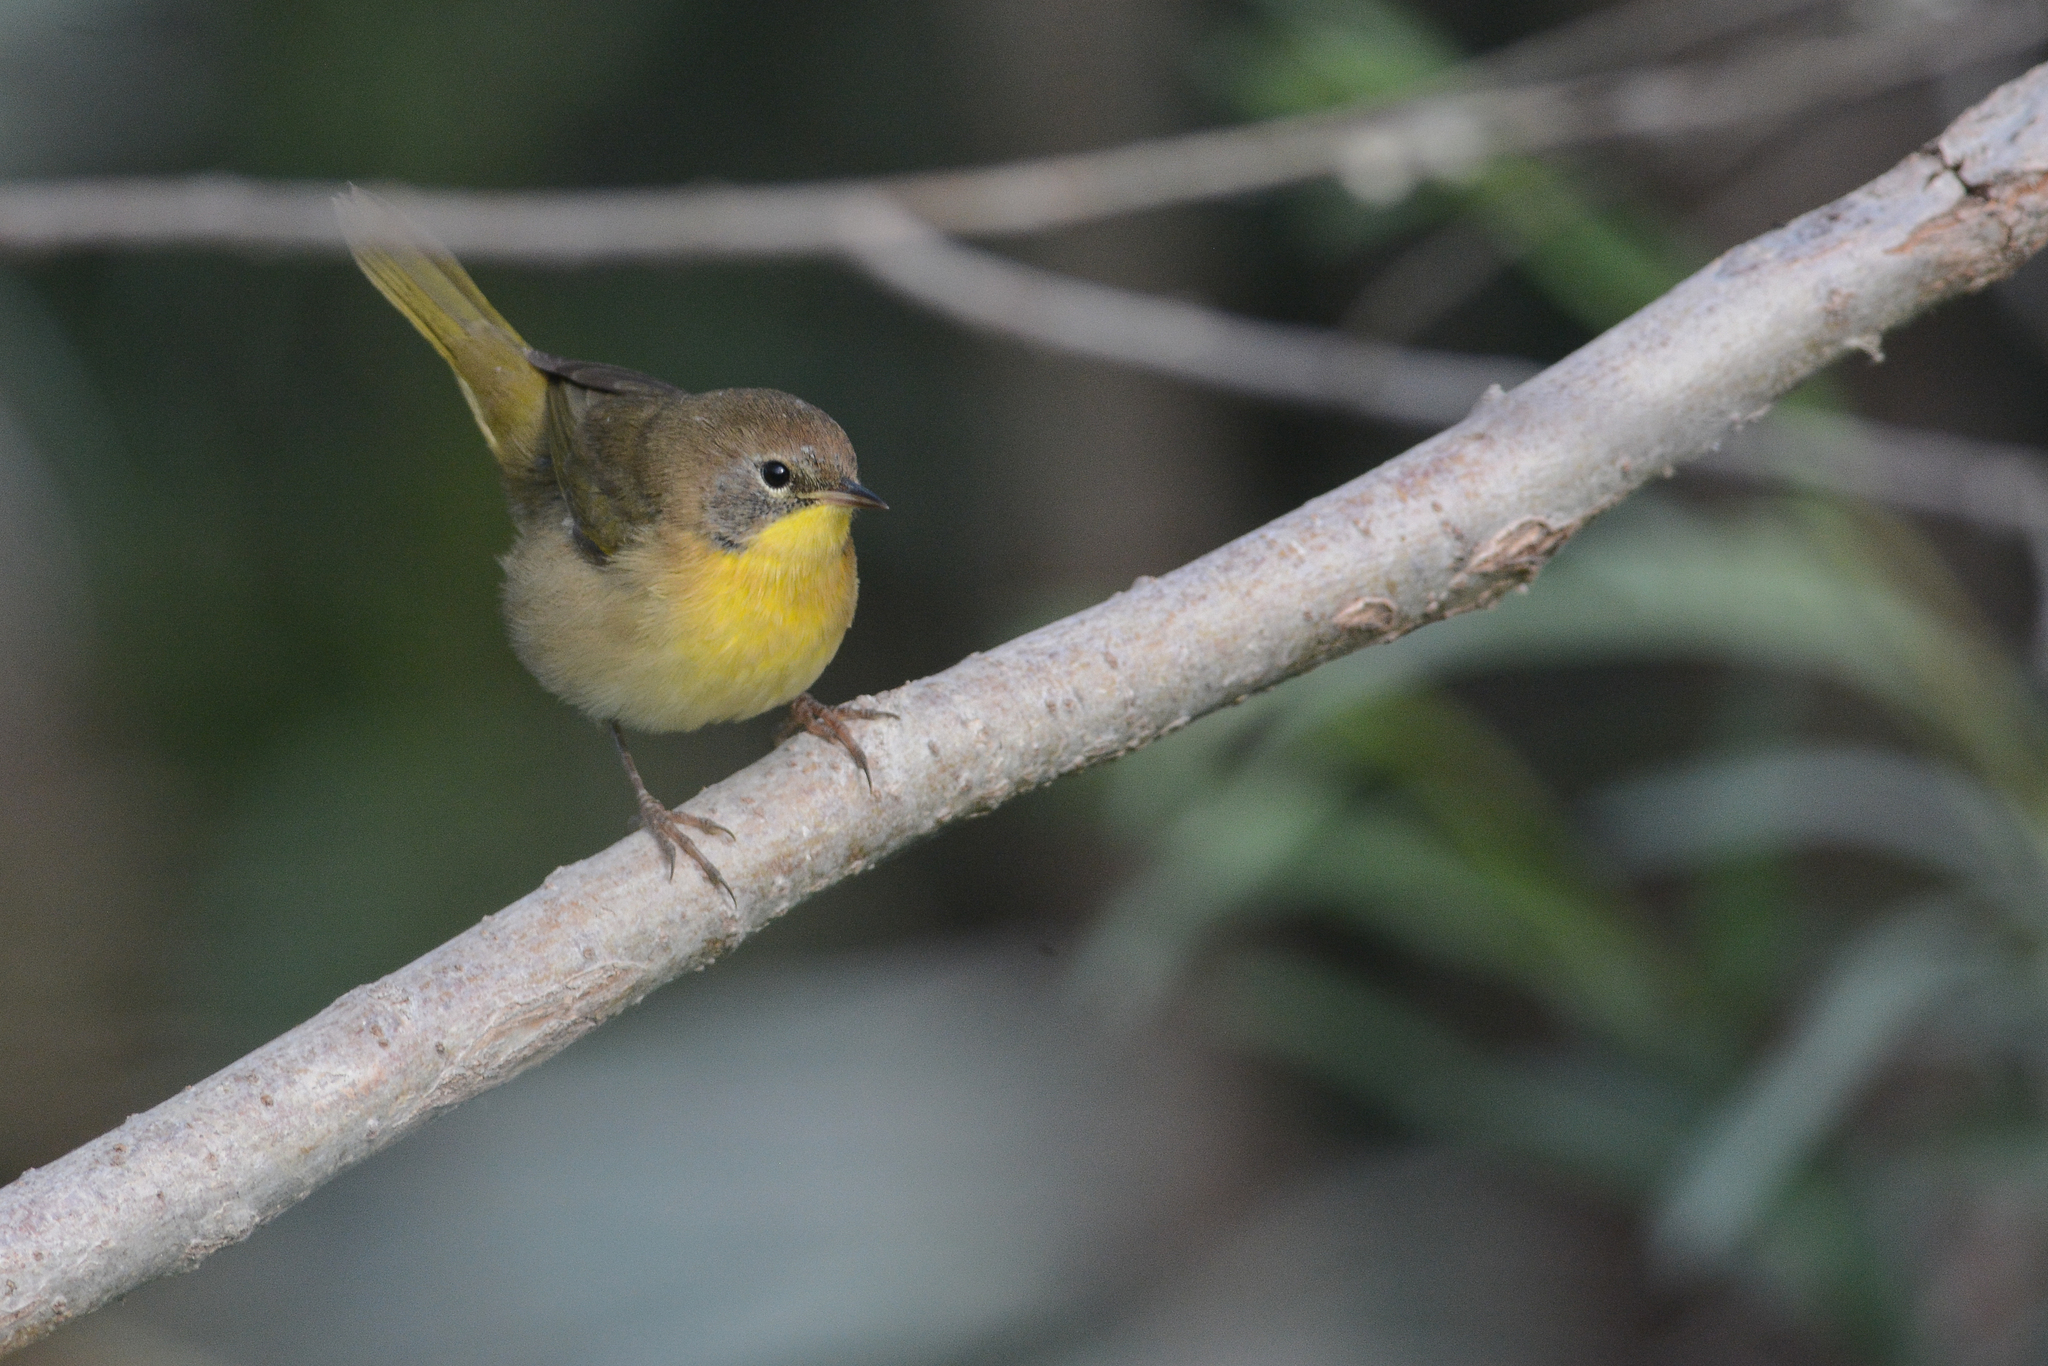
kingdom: Animalia
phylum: Chordata
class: Aves
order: Passeriformes
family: Parulidae
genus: Geothlypis
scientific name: Geothlypis trichas
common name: Common yellowthroat
